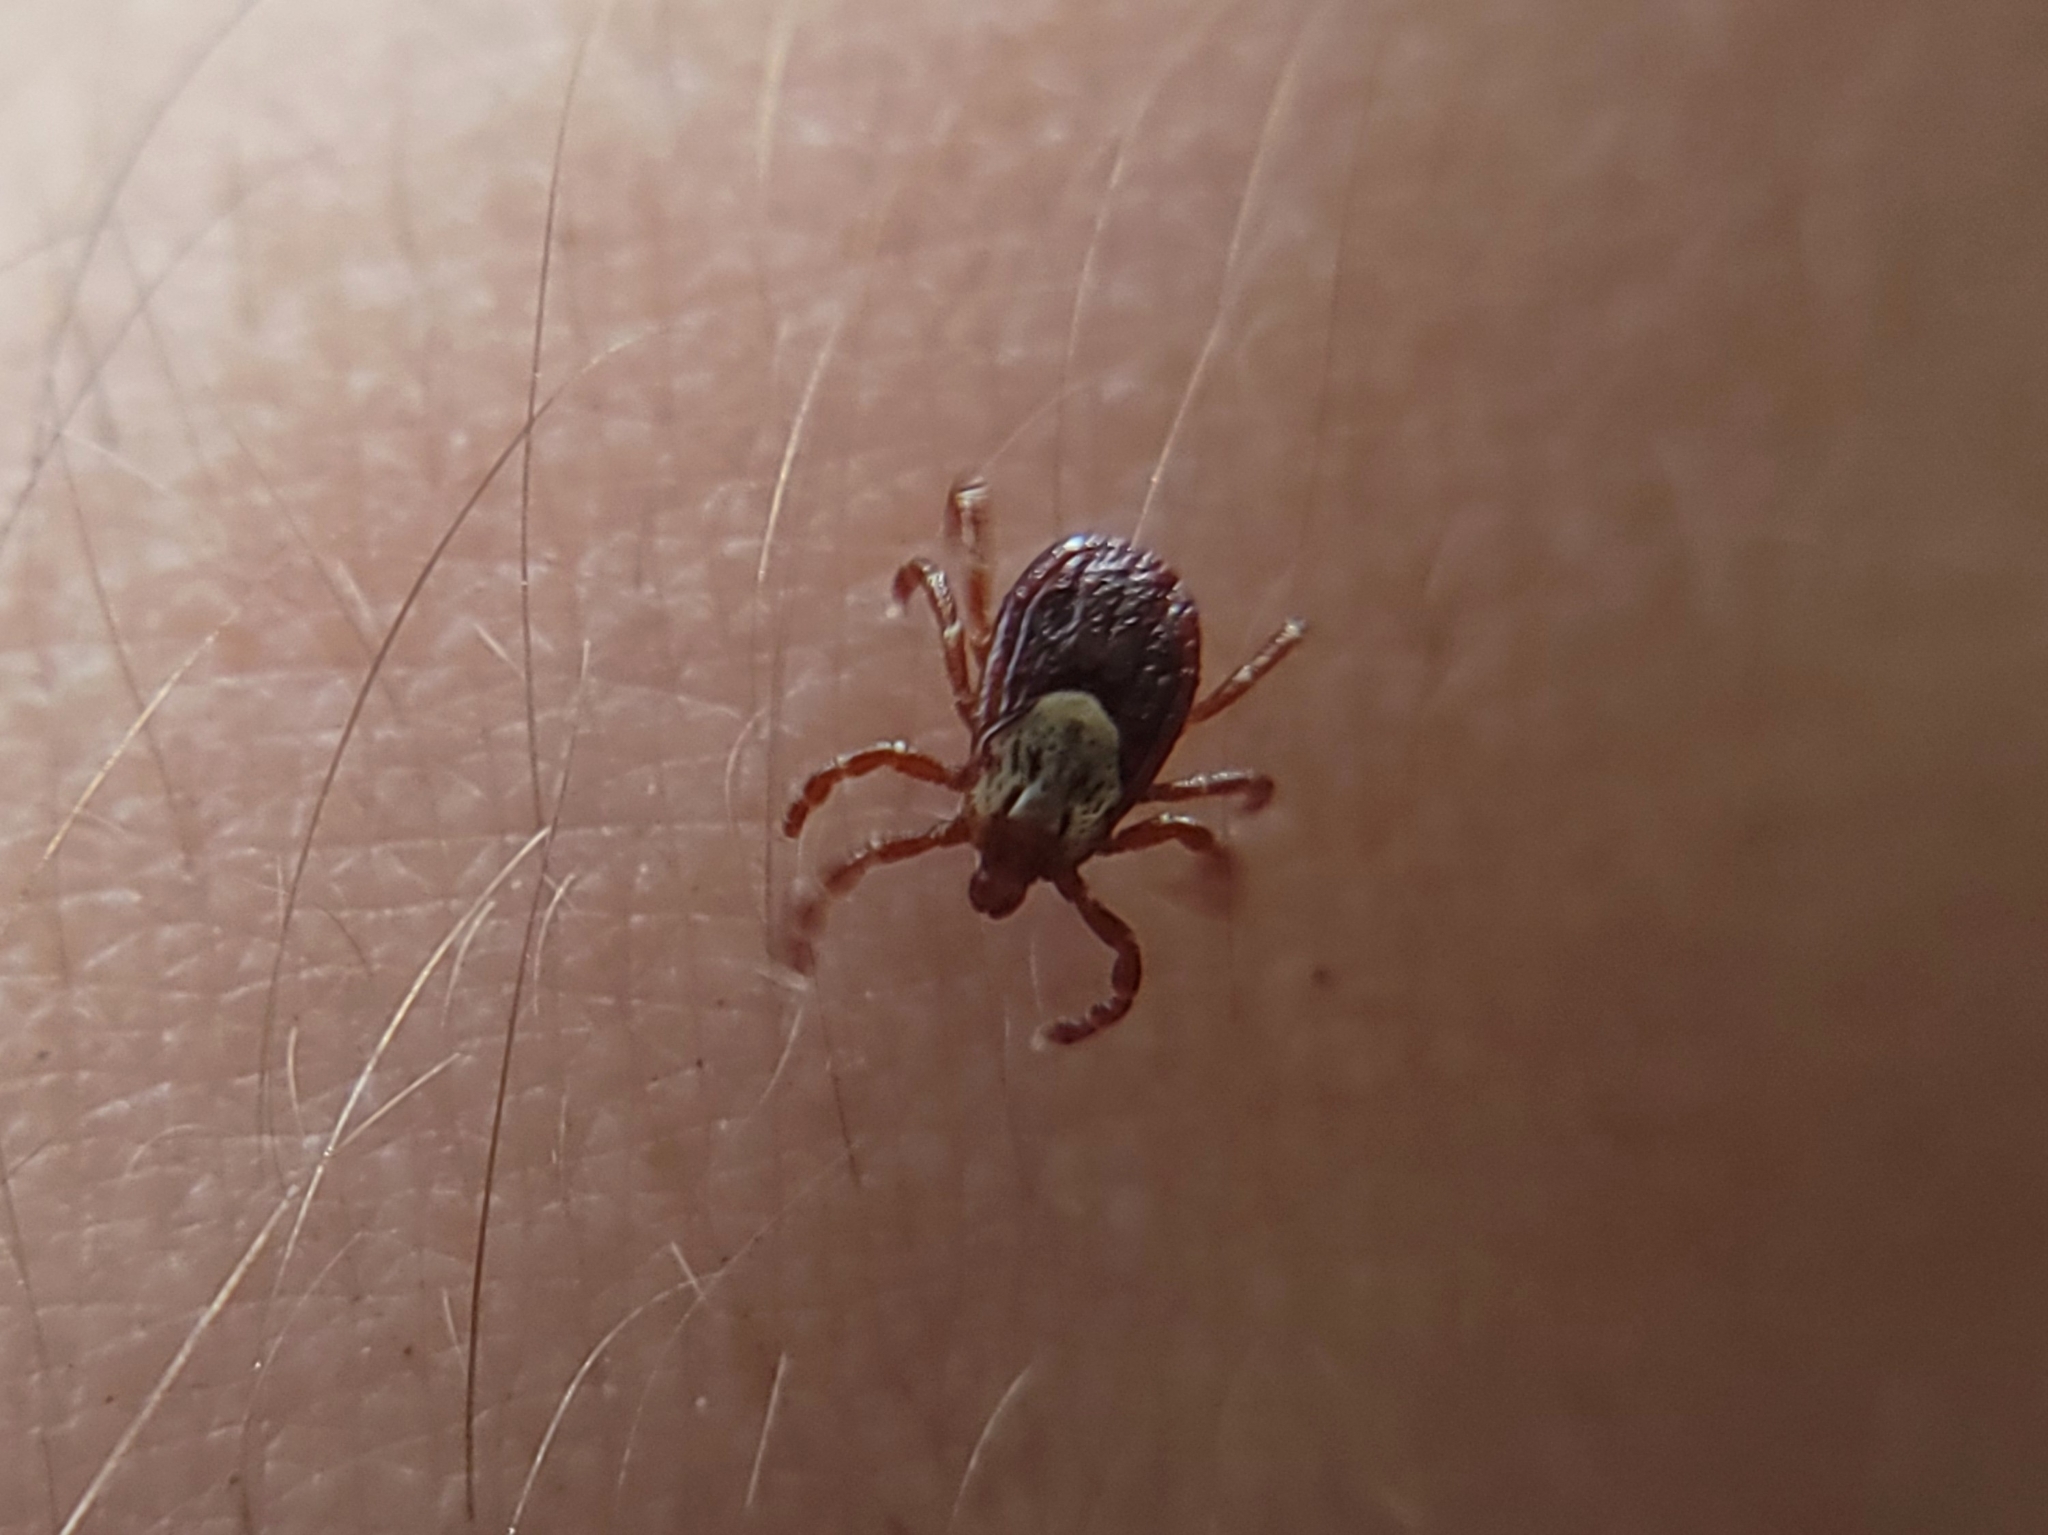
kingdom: Animalia
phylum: Arthropoda
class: Arachnida
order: Ixodida
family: Ixodidae
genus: Dermacentor
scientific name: Dermacentor andersoni
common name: Rocky mountain wood tick
